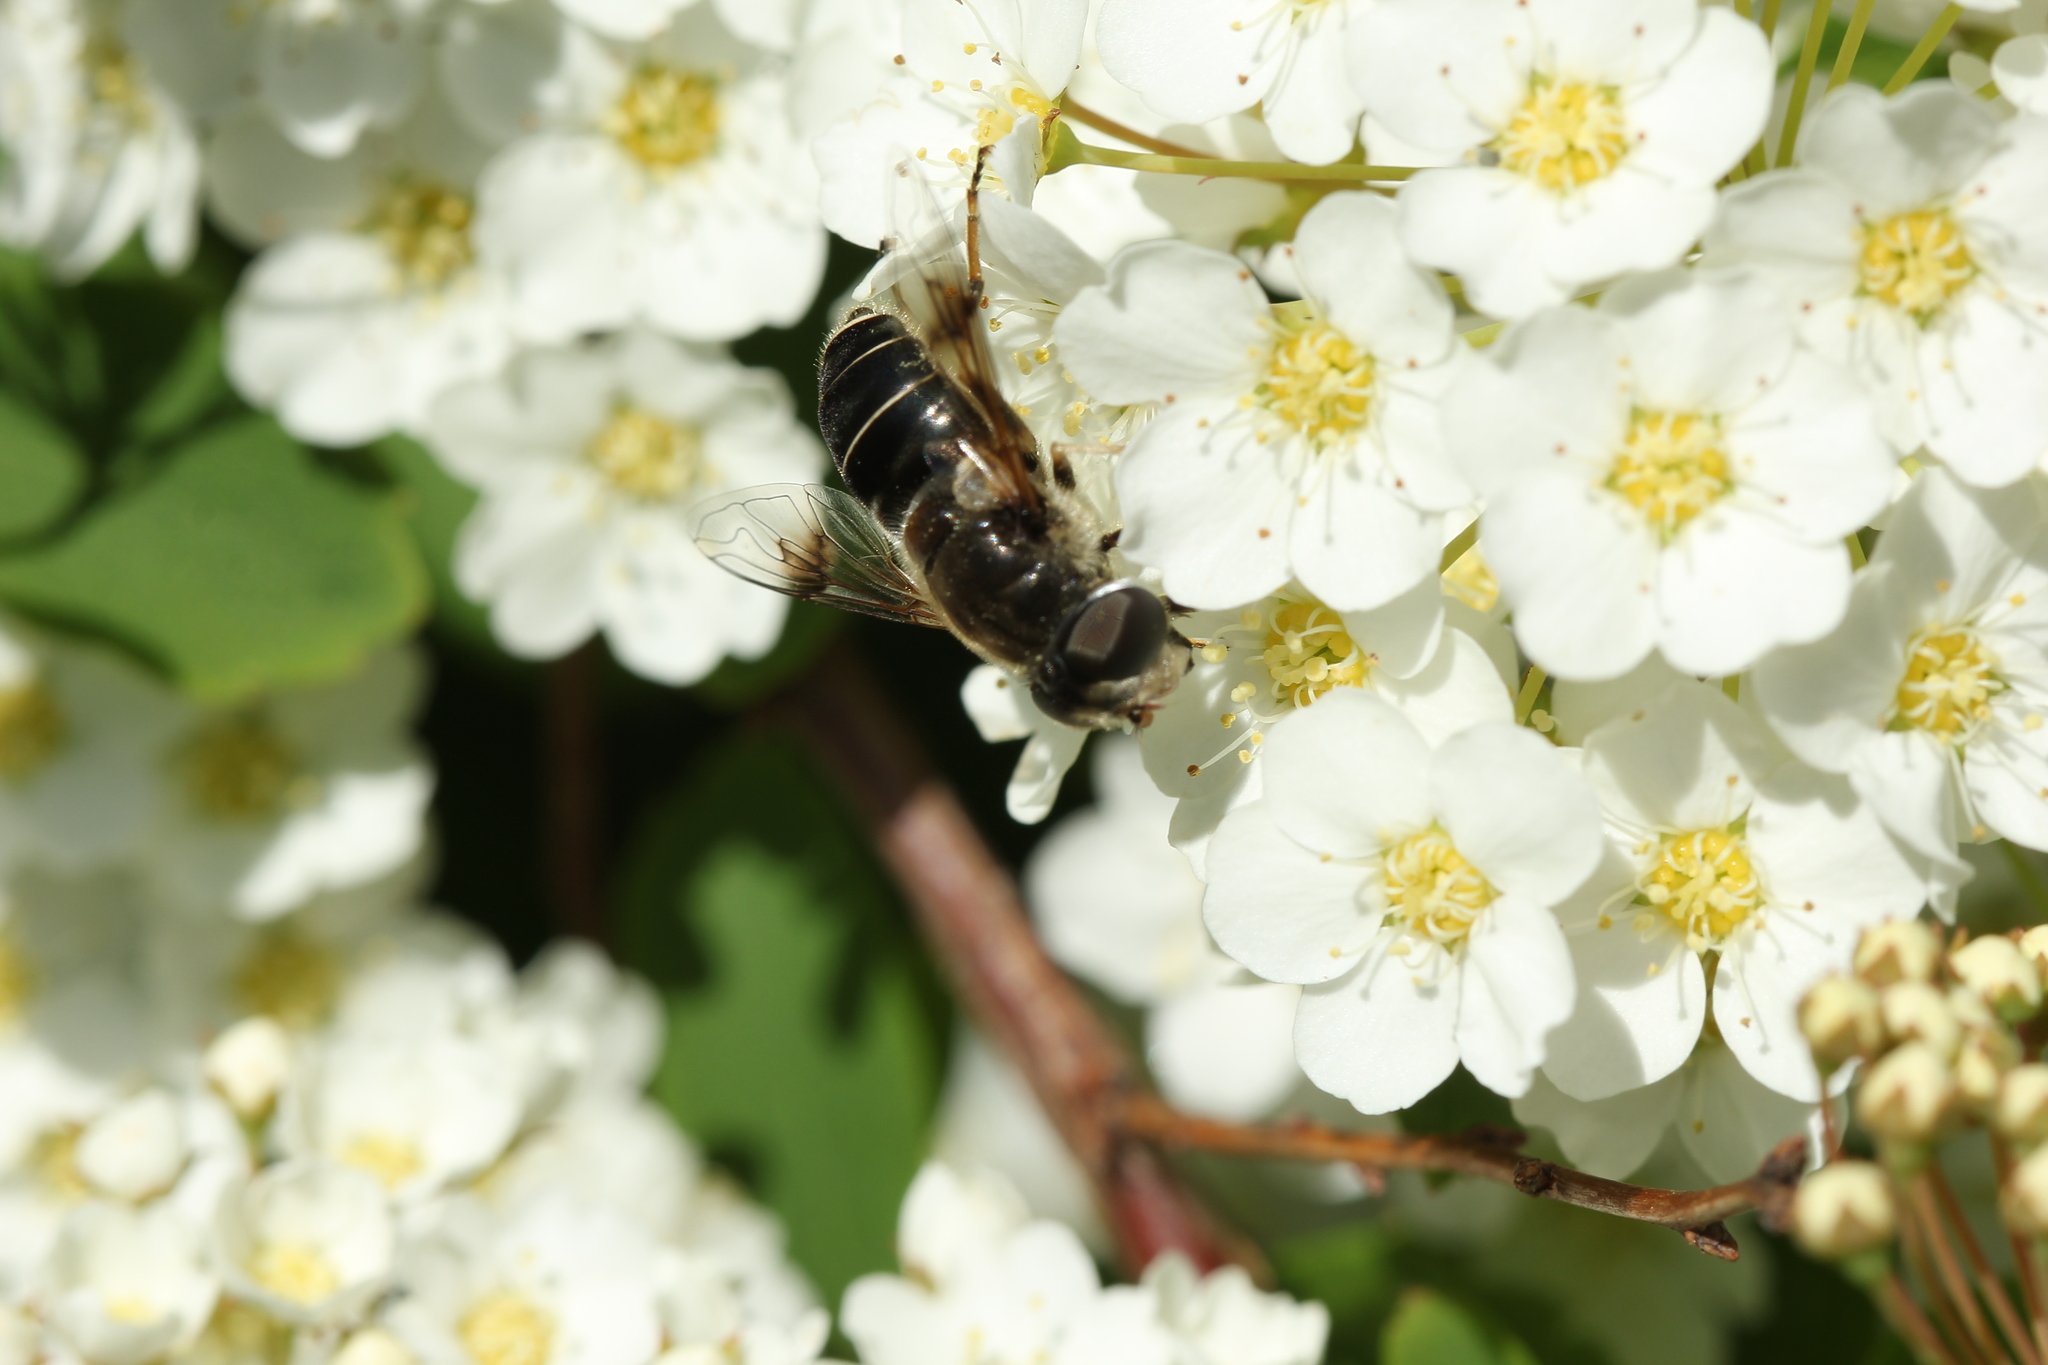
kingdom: Animalia
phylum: Arthropoda
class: Insecta
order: Diptera
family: Syrphidae
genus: Eristalis
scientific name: Eristalis obscura
